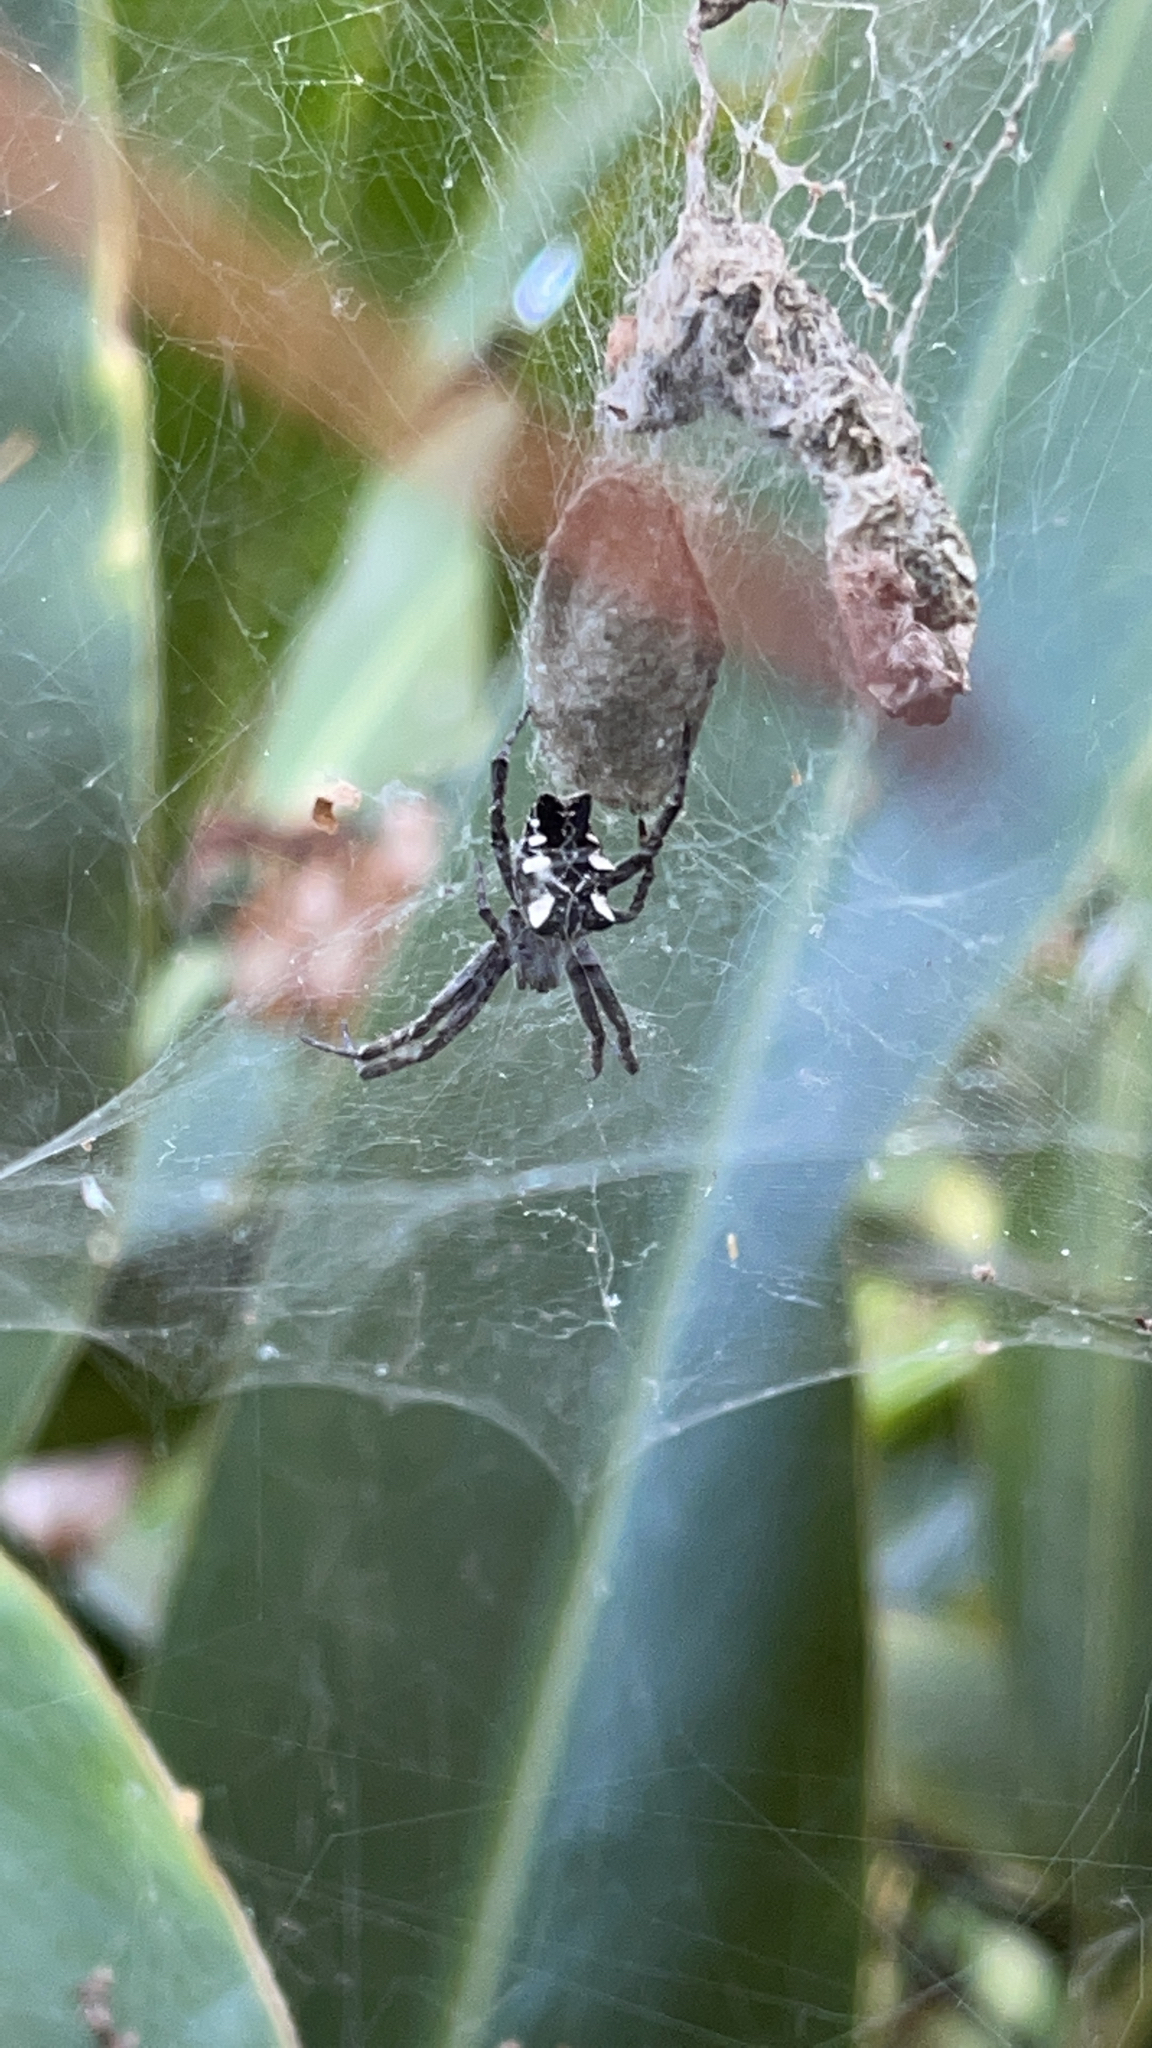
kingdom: Animalia
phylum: Arthropoda
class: Arachnida
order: Araneae
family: Araneidae
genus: Cyrtophora
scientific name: Cyrtophora citricola
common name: Orb weavers
